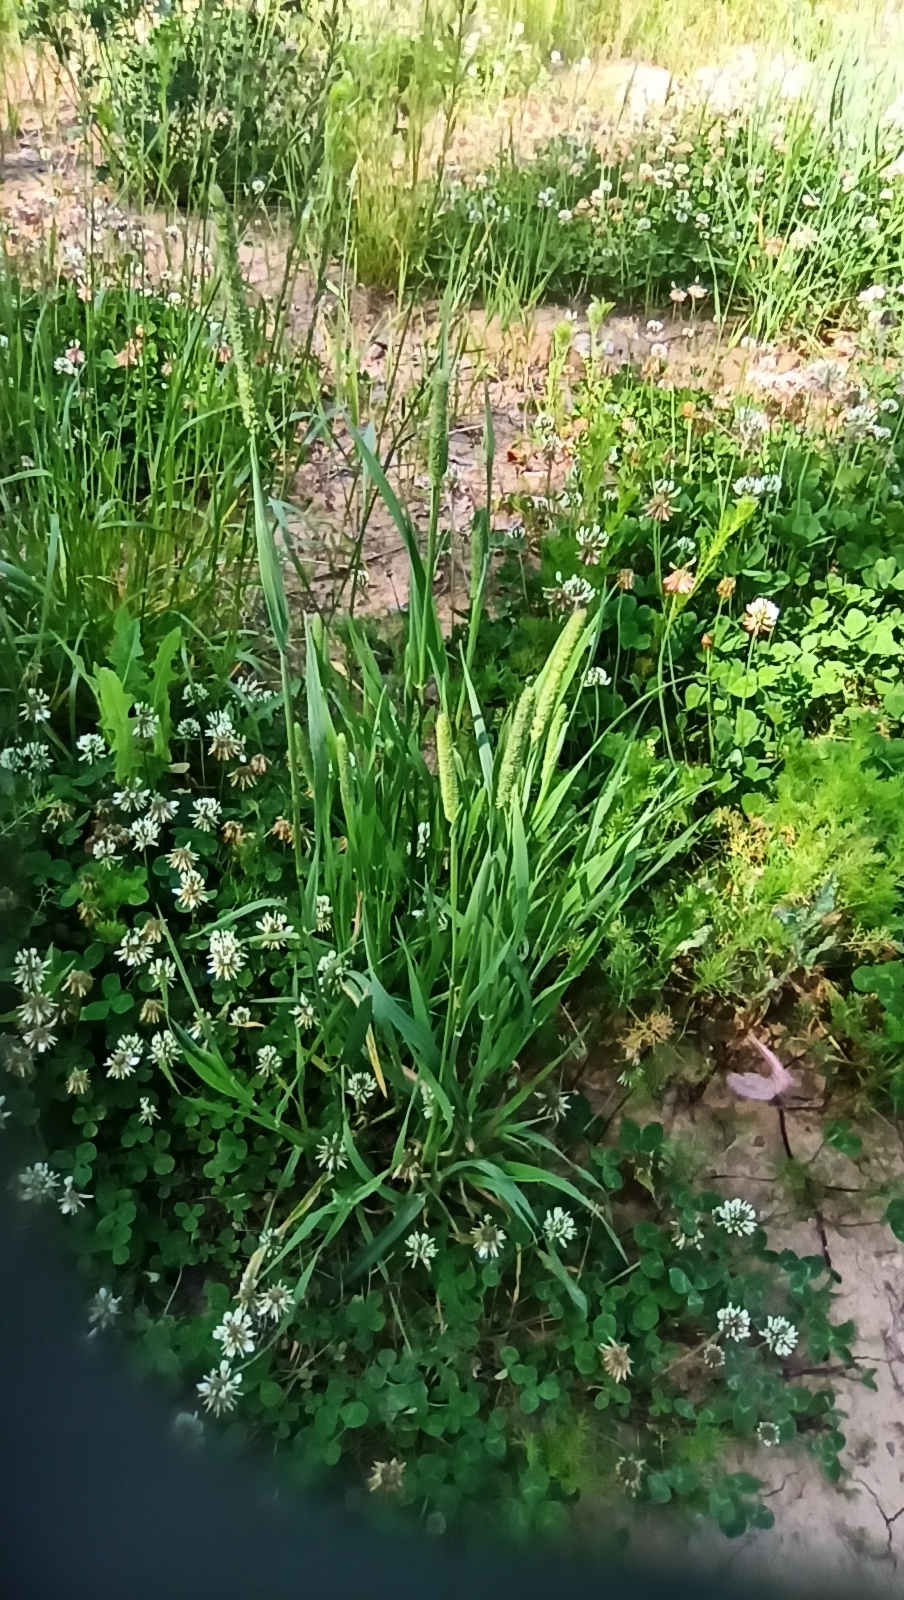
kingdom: Plantae
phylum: Tracheophyta
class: Liliopsida
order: Poales
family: Poaceae
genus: Phleum
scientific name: Phleum pratense
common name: Timothy grass
